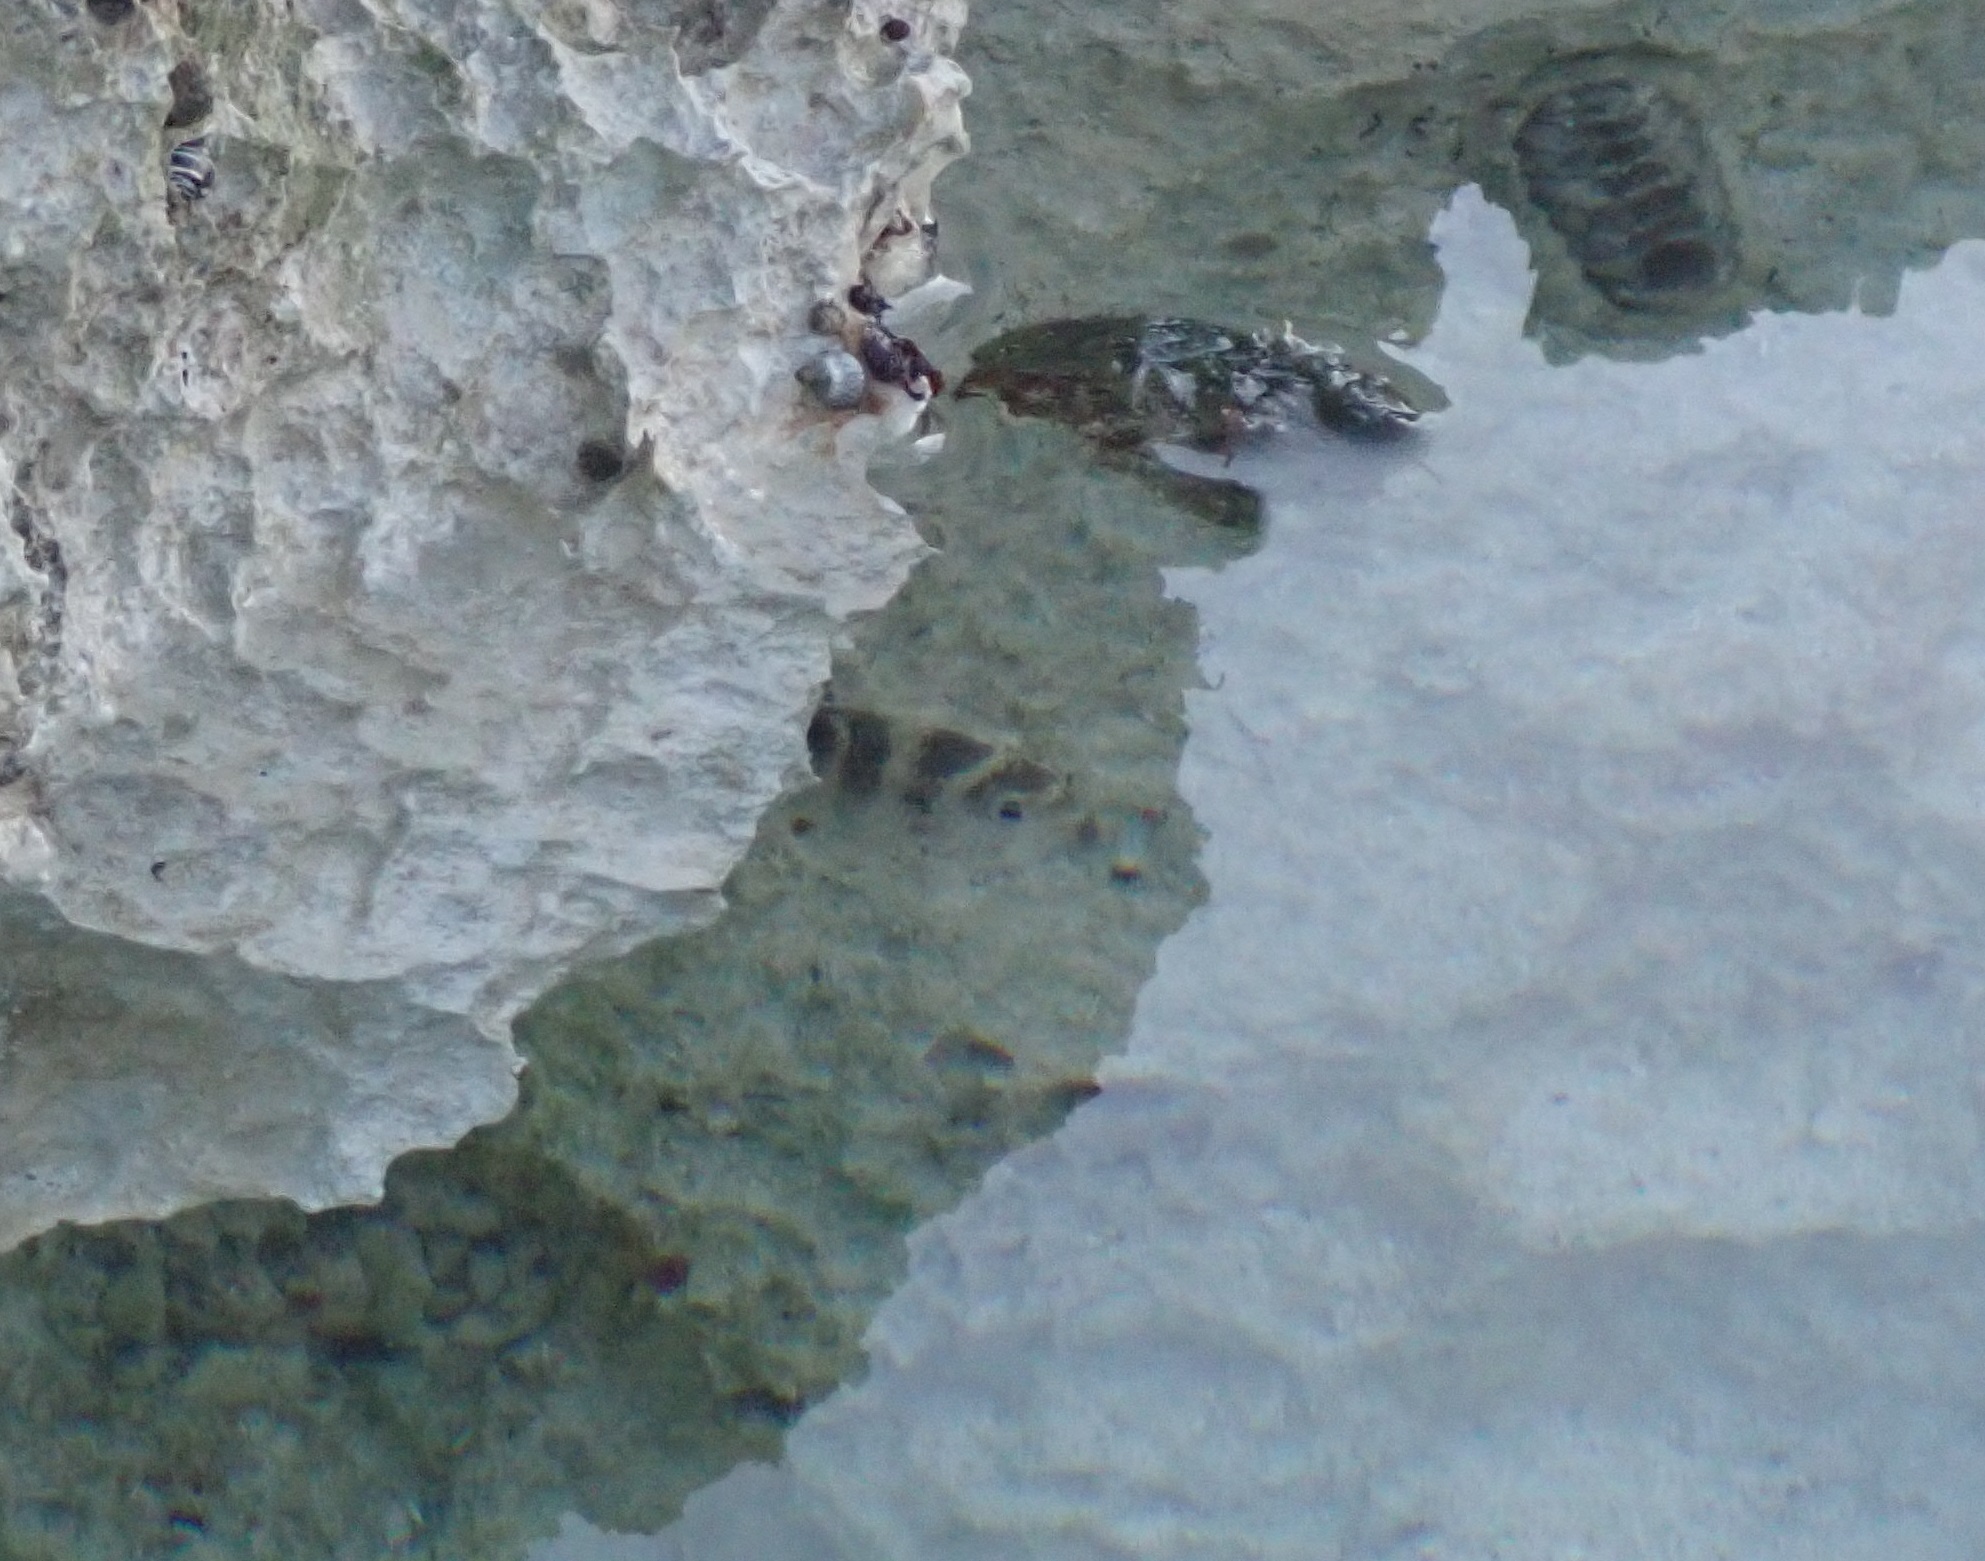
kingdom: Animalia
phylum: Chordata
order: Perciformes
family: Pomacentridae
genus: Abudefduf
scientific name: Abudefduf taurus
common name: Night sergeant
